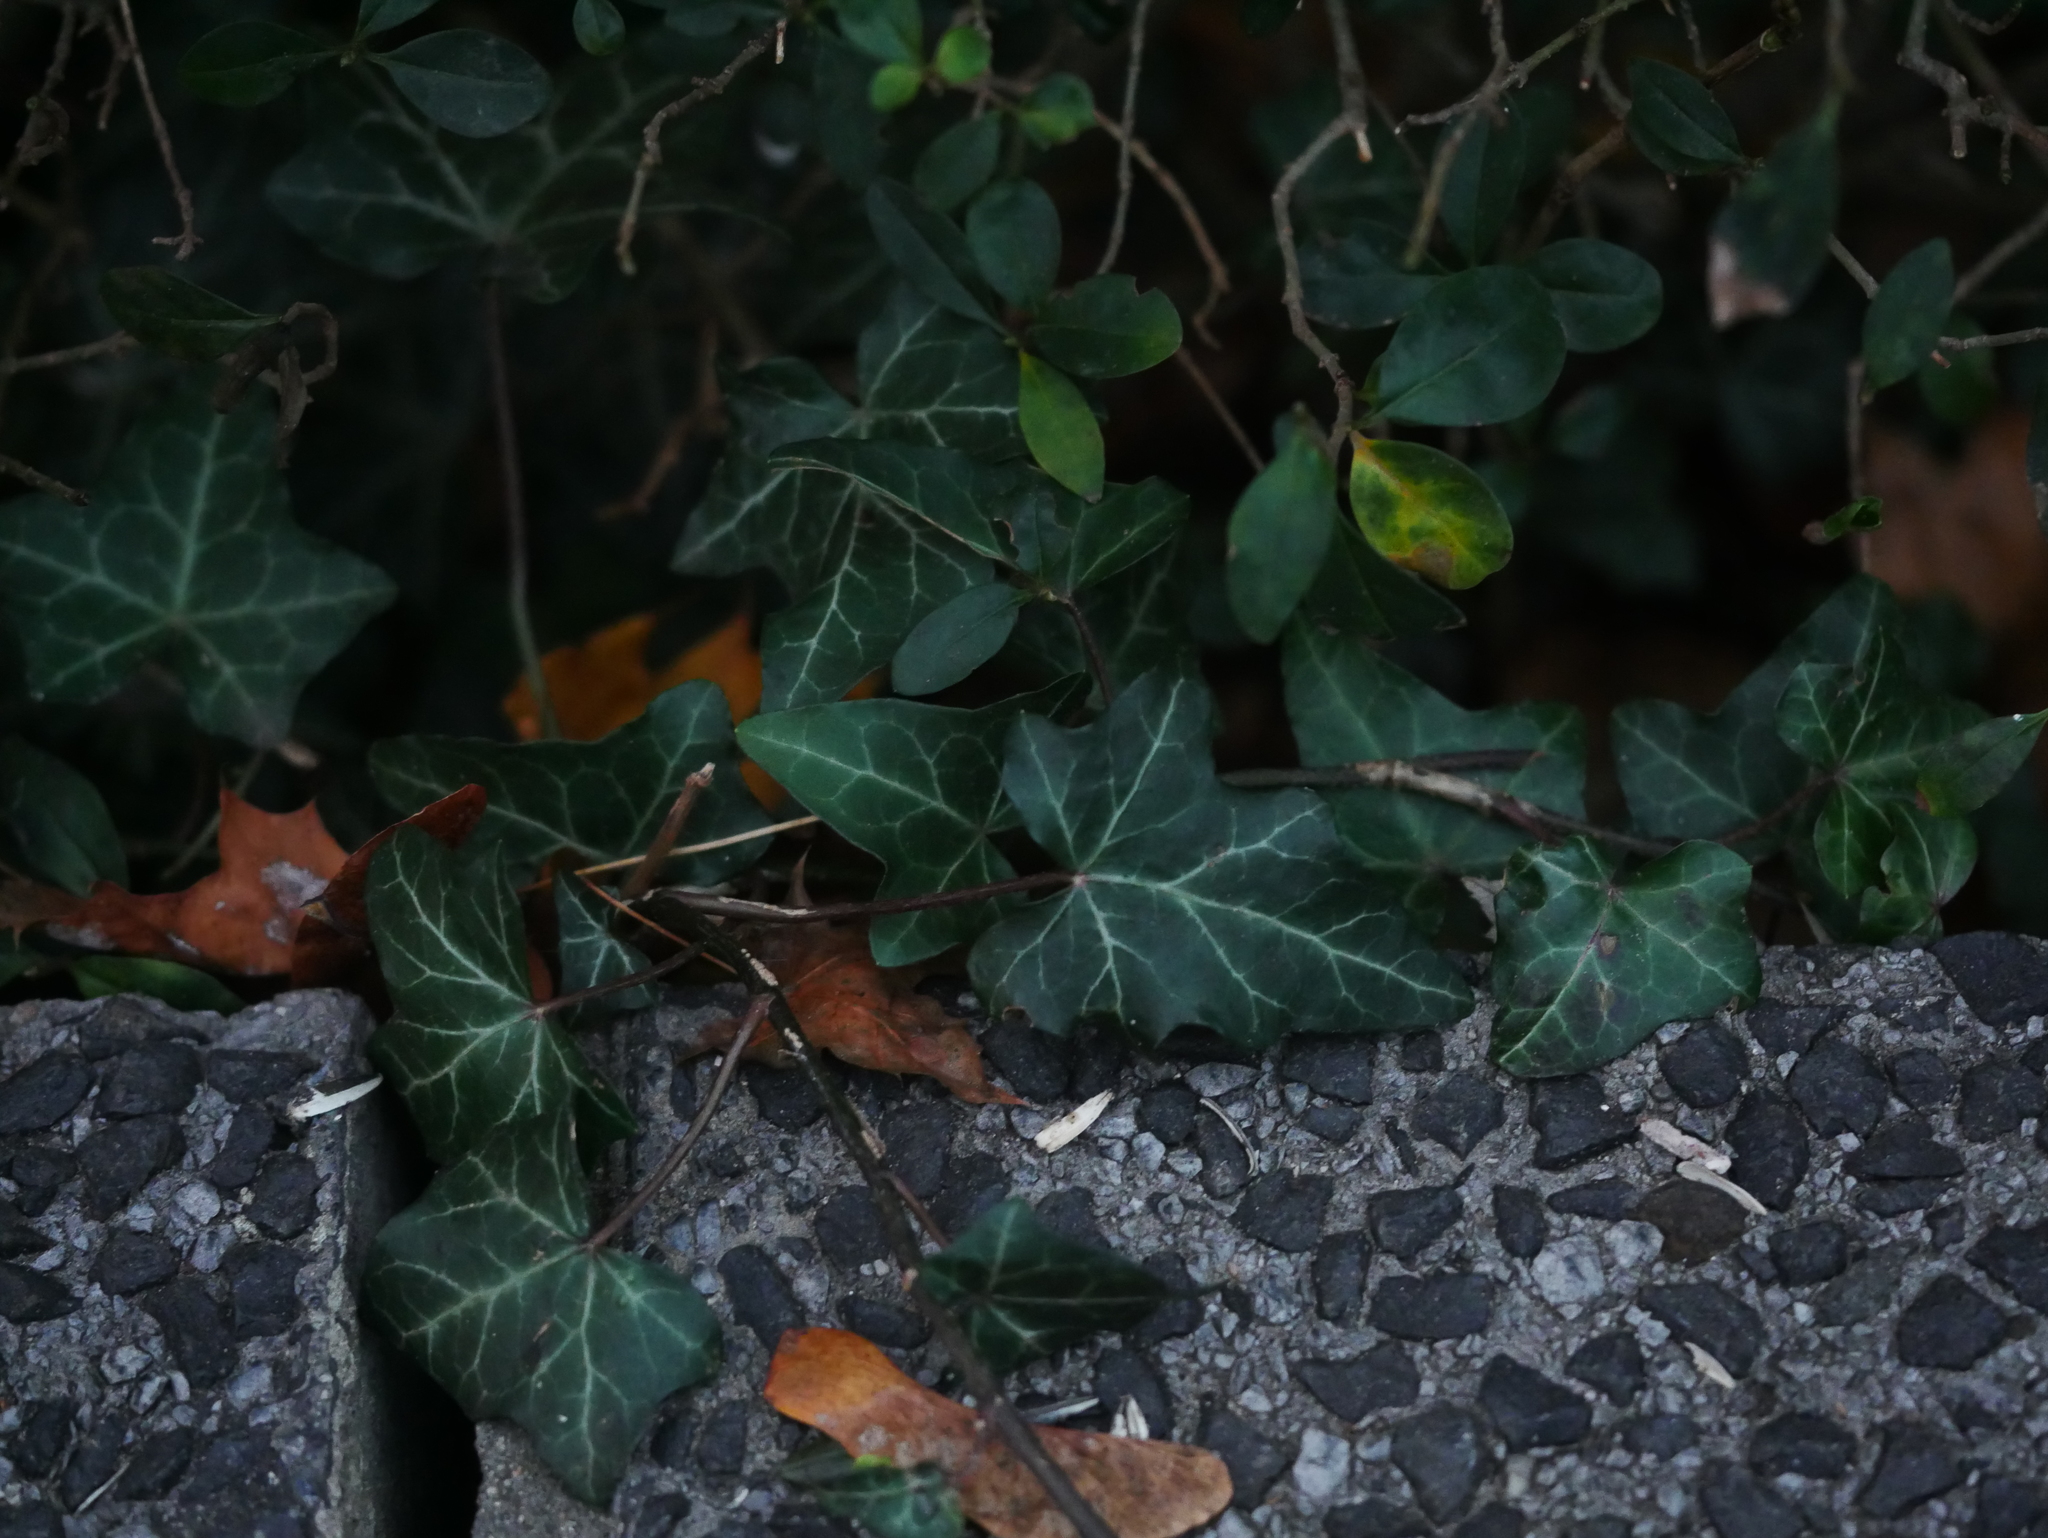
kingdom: Plantae
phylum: Tracheophyta
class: Magnoliopsida
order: Apiales
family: Araliaceae
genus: Hedera
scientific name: Hedera helix
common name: Ivy
